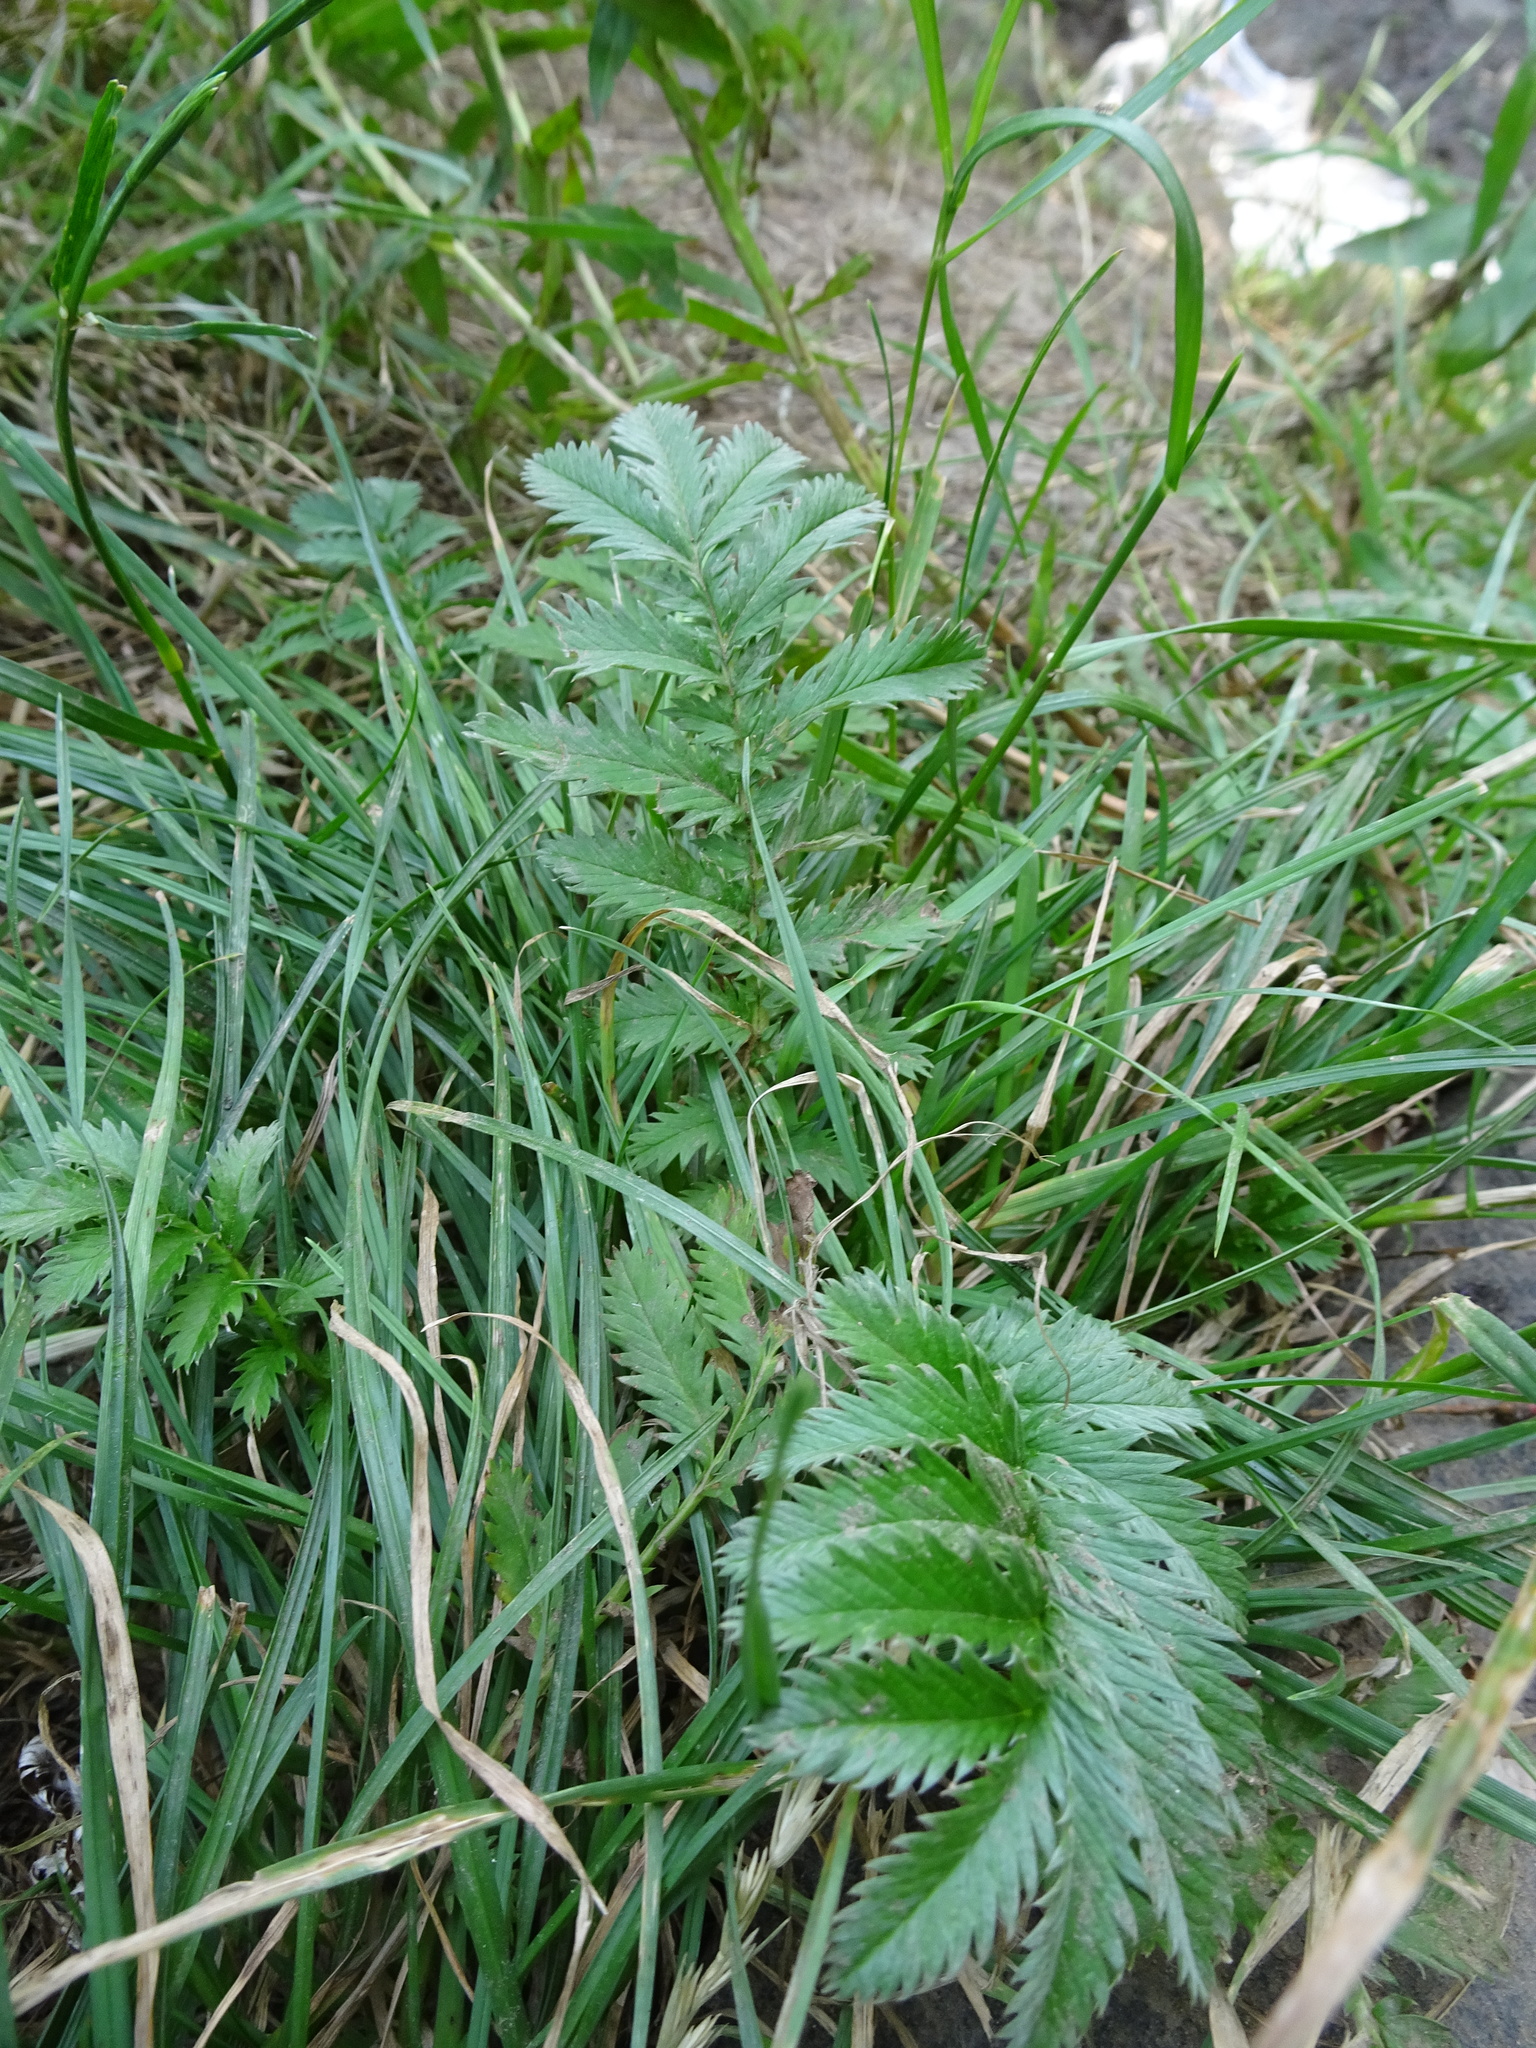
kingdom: Plantae
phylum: Tracheophyta
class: Magnoliopsida
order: Rosales
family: Rosaceae
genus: Argentina
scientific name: Argentina anserina
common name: Common silverweed
